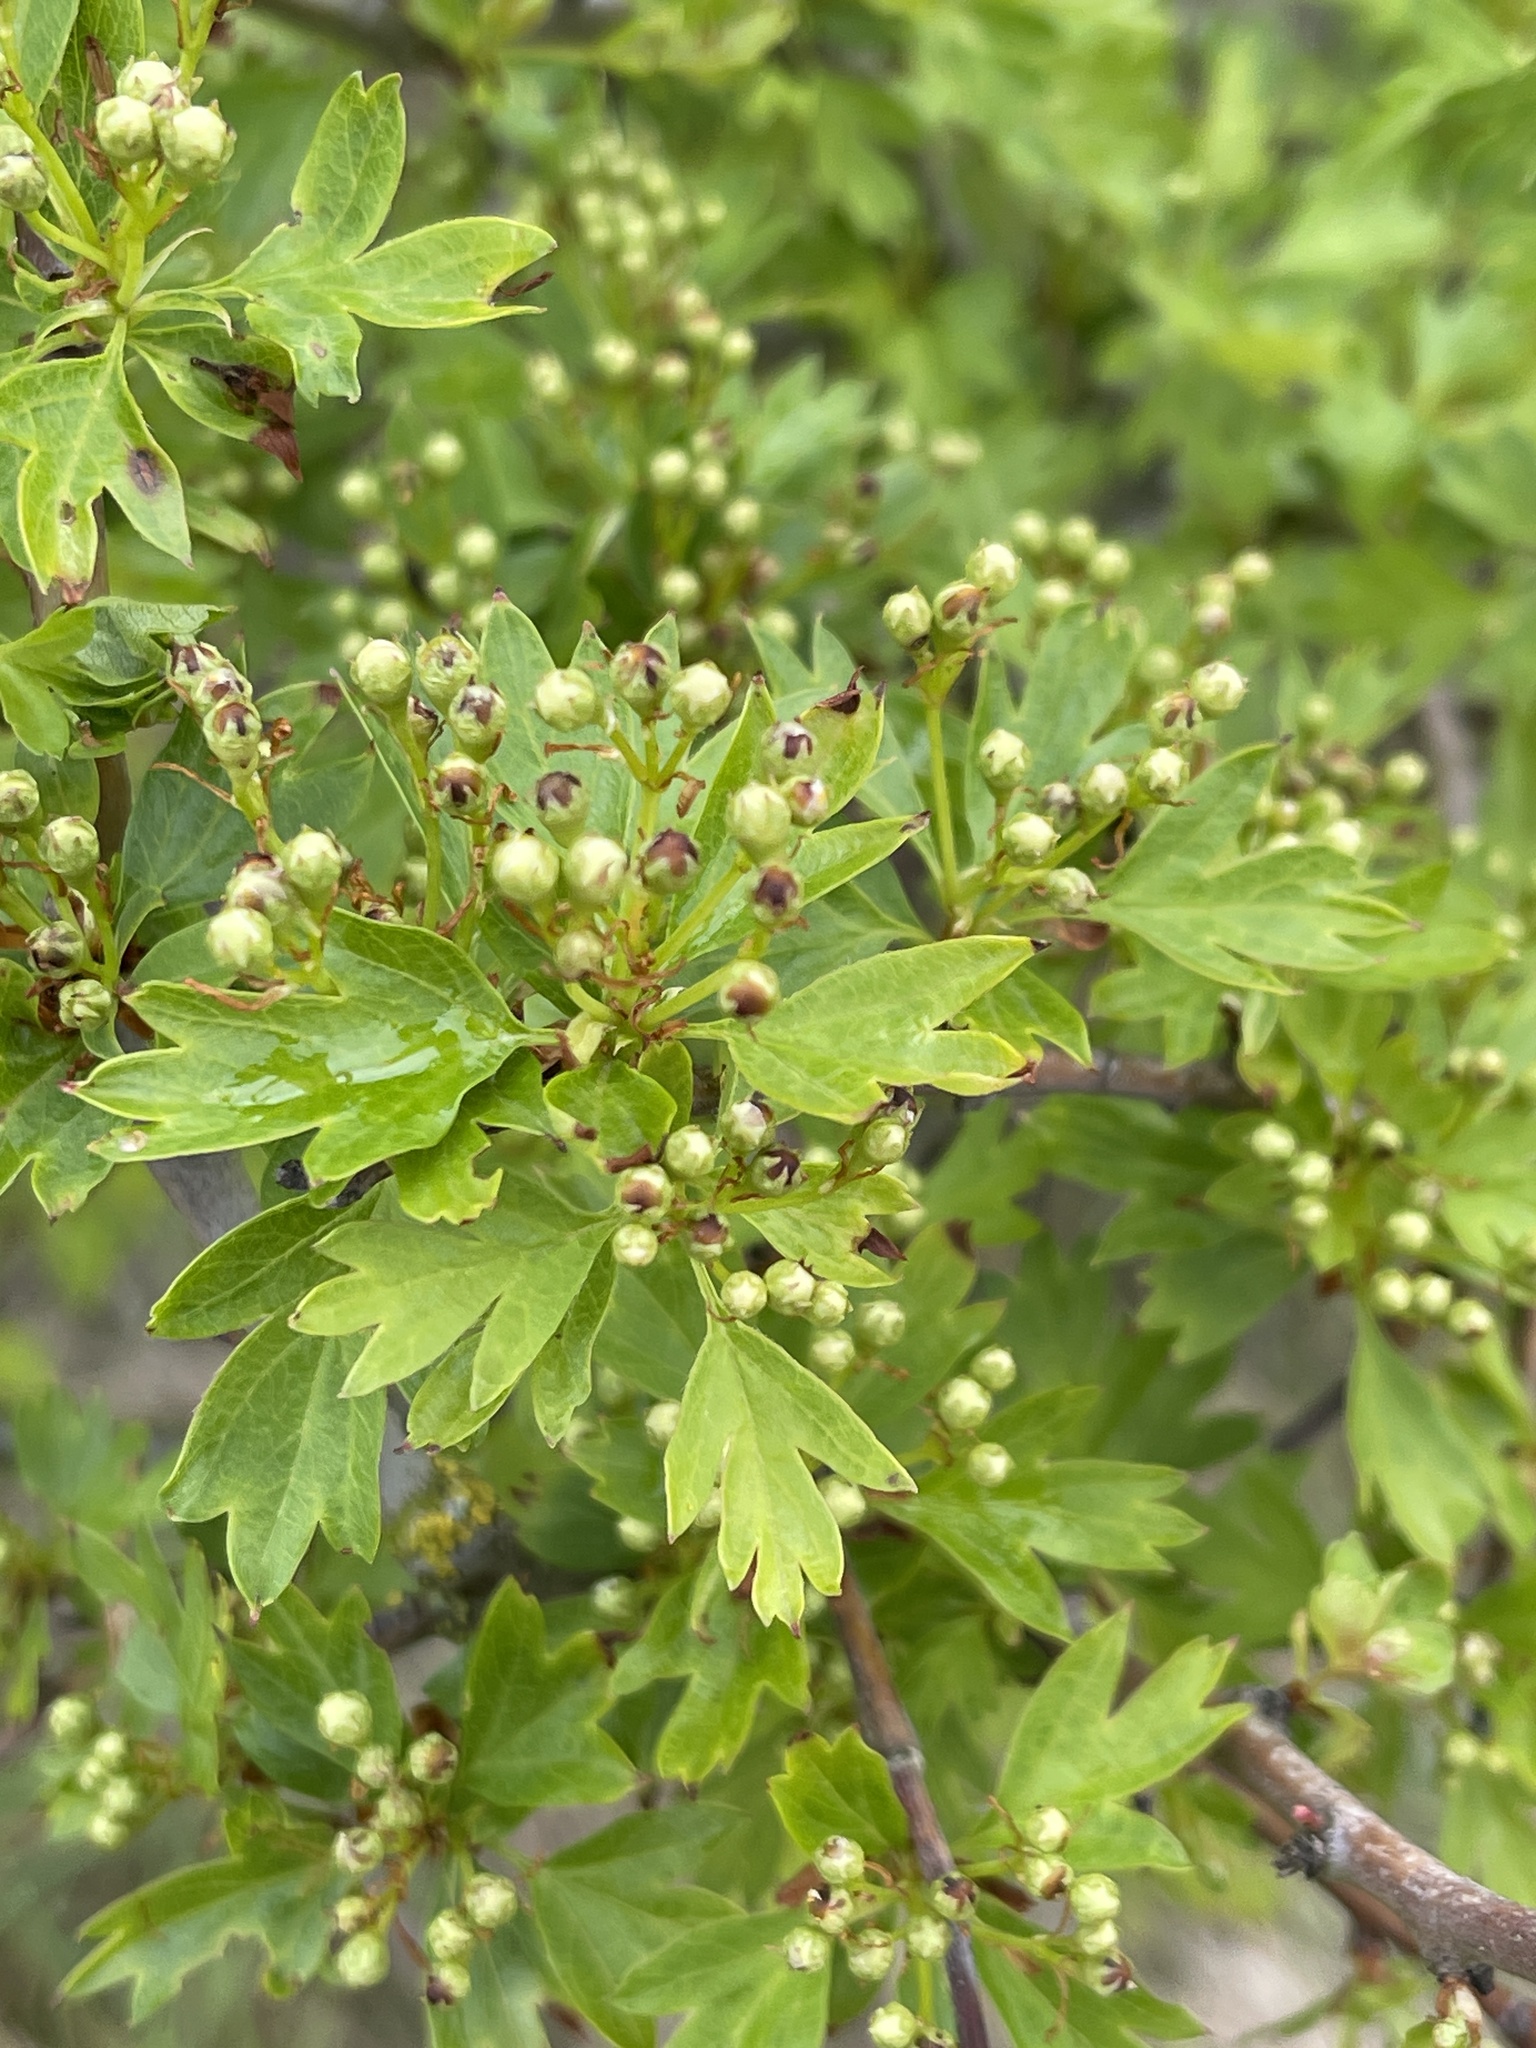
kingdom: Plantae
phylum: Tracheophyta
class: Magnoliopsida
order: Rosales
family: Rosaceae
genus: Crataegus
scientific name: Crataegus monogyna
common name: Hawthorn
